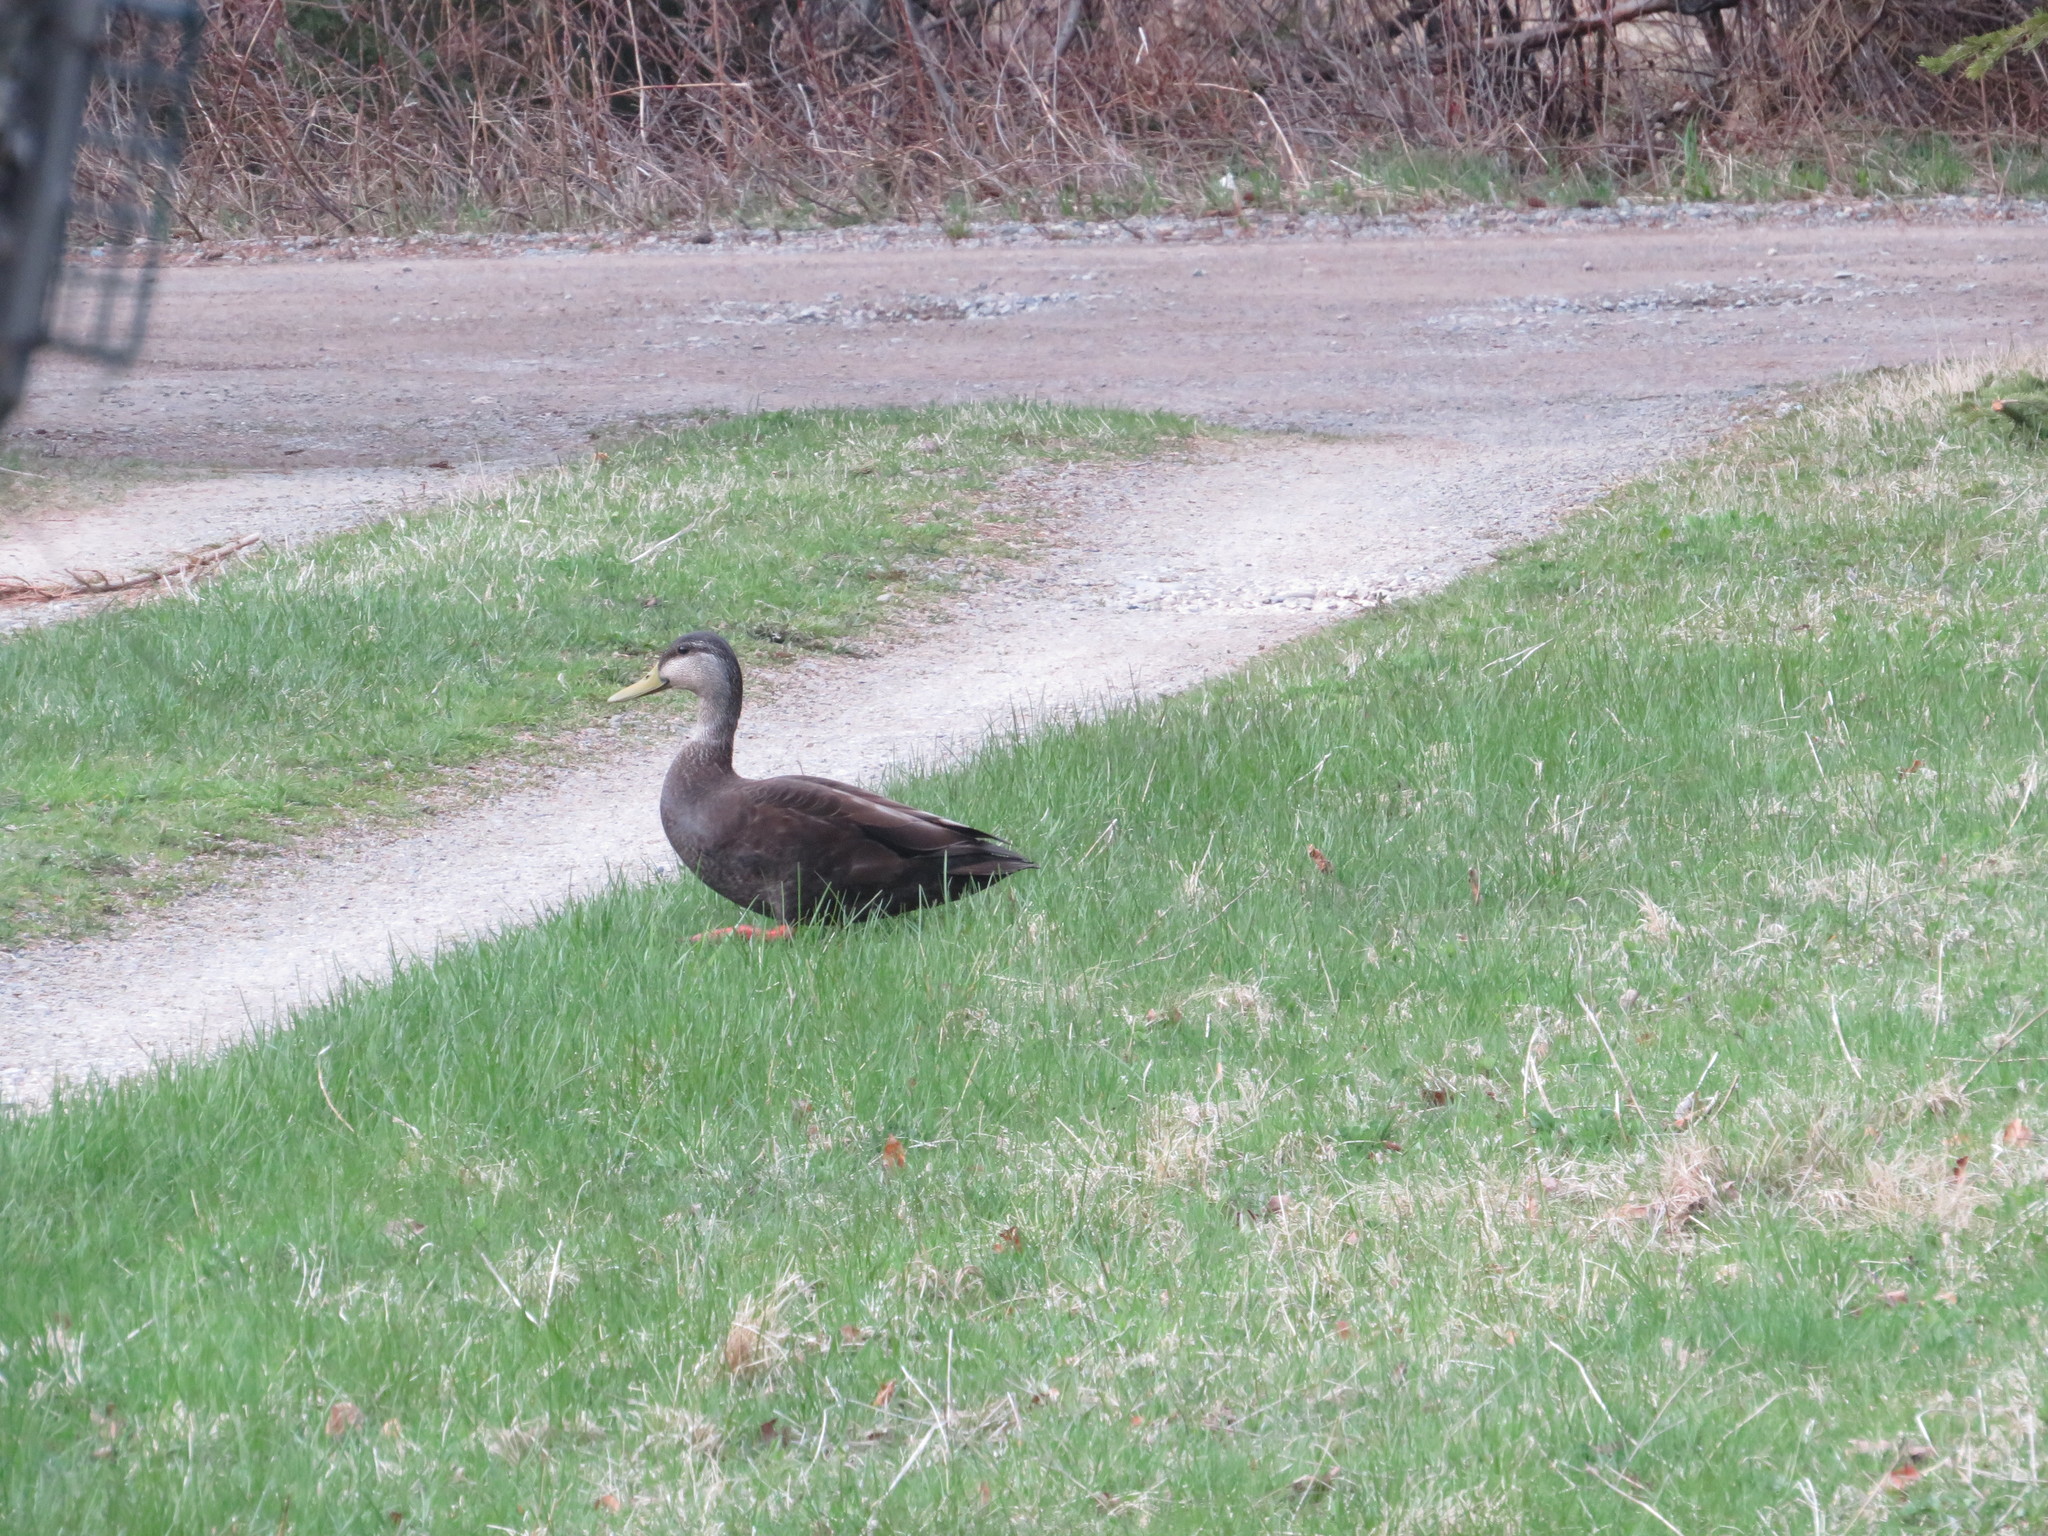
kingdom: Animalia
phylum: Chordata
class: Aves
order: Anseriformes
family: Anatidae
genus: Anas
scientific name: Anas rubripes
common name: American black duck
